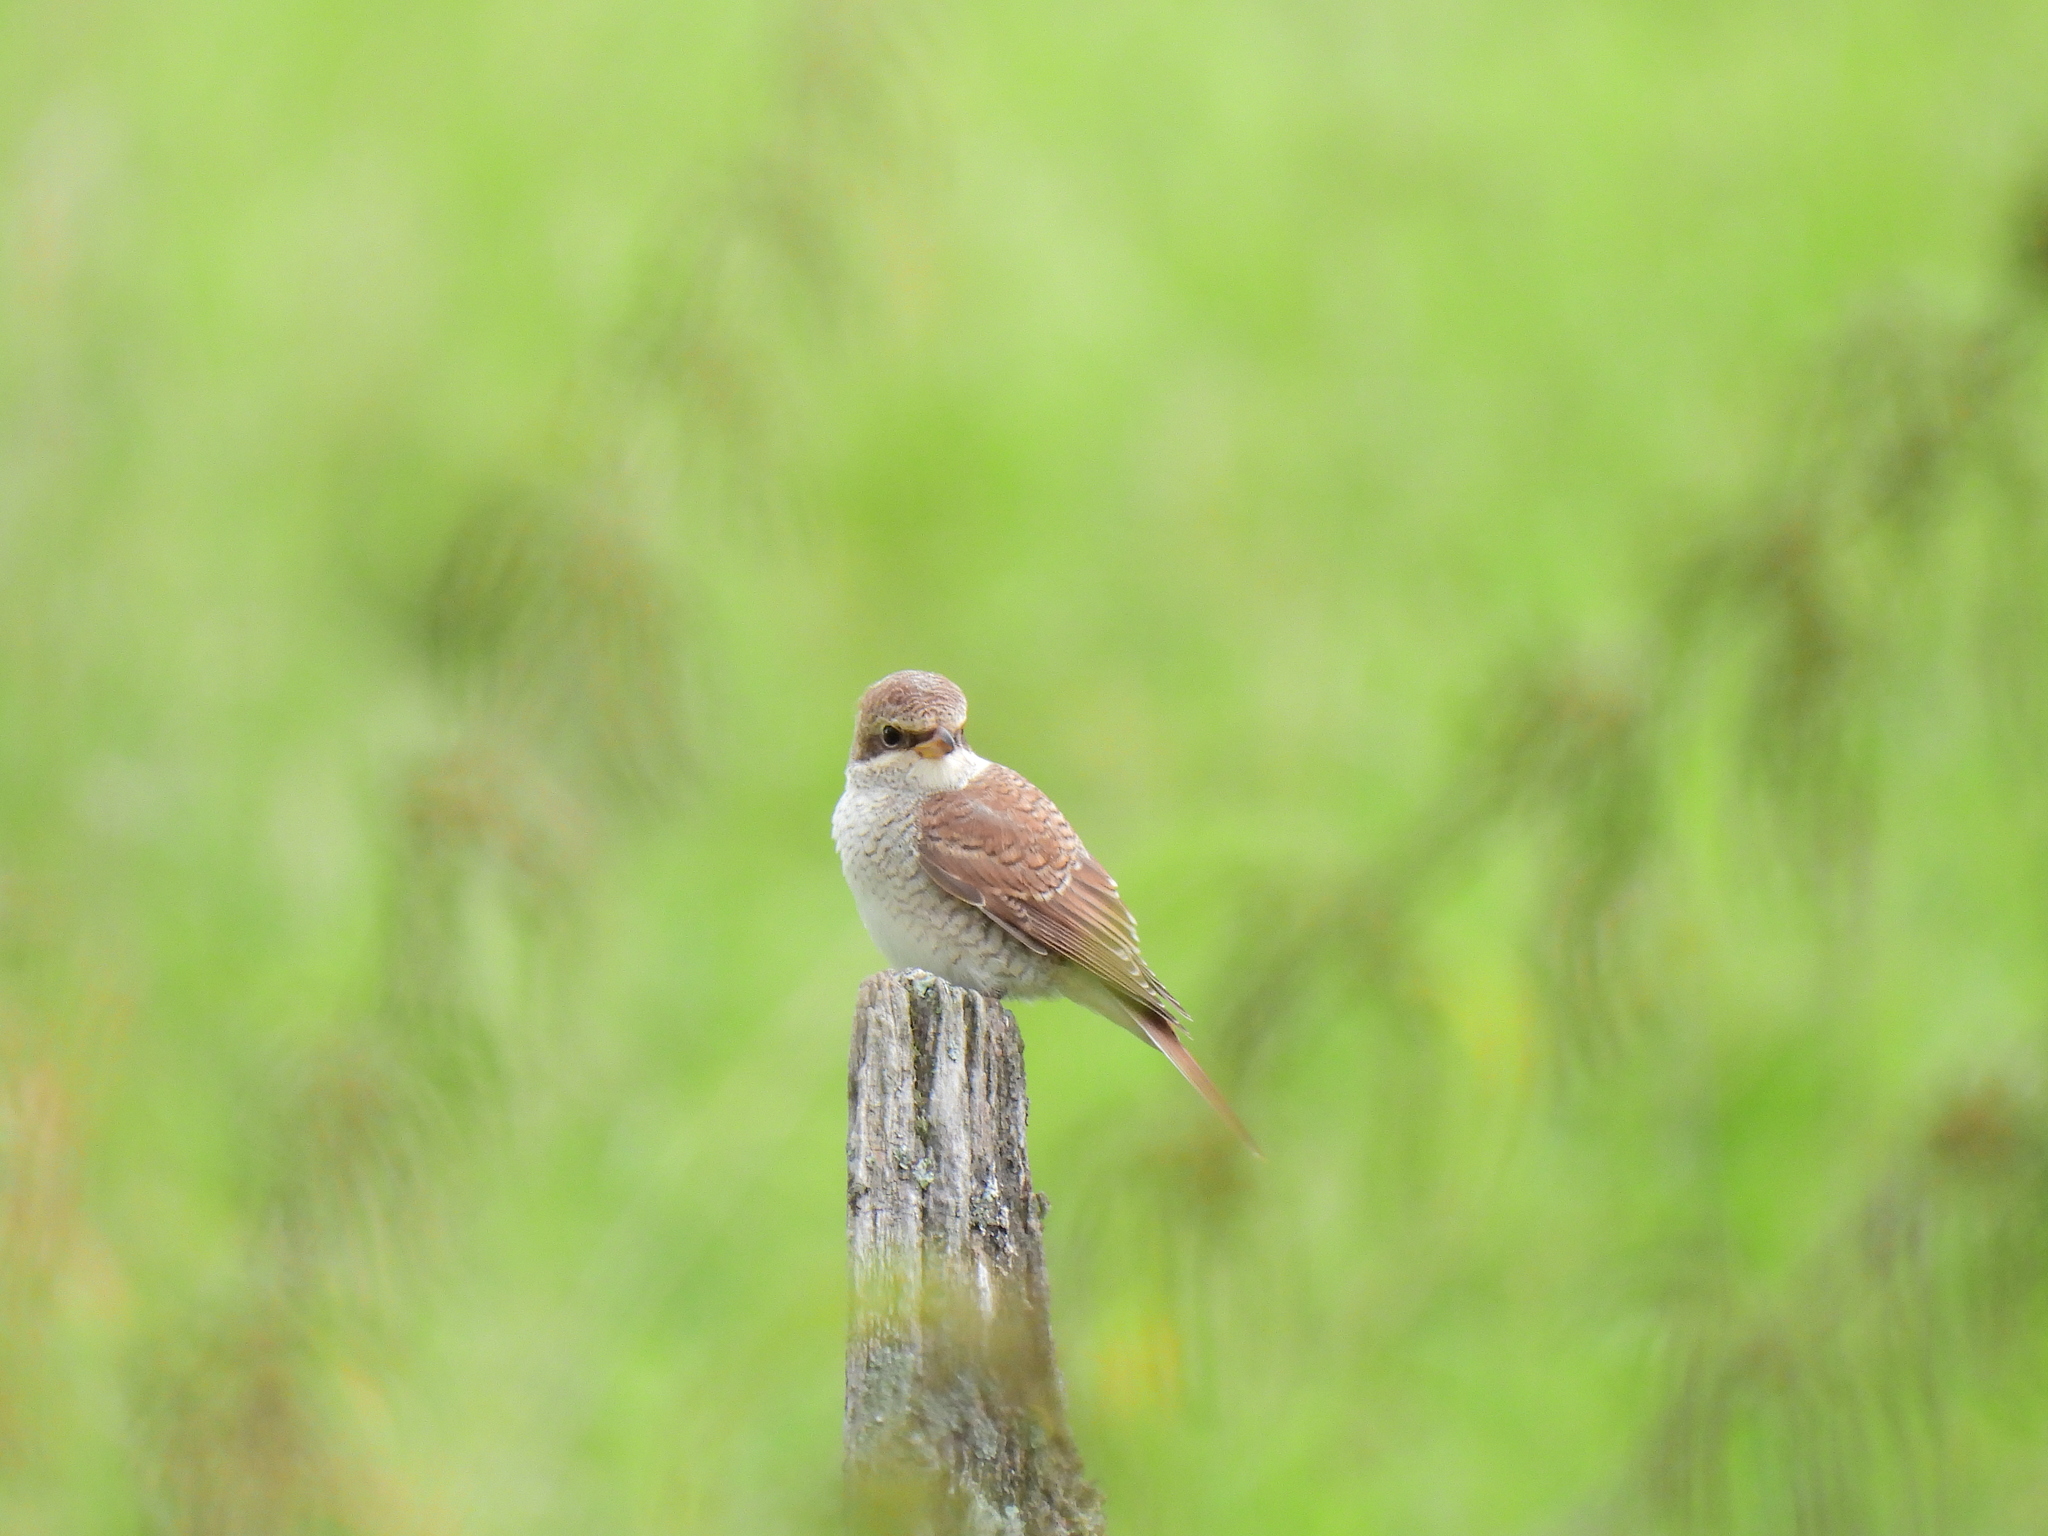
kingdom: Animalia
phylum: Chordata
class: Aves
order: Passeriformes
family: Laniidae
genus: Lanius
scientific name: Lanius collurio
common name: Red-backed shrike
